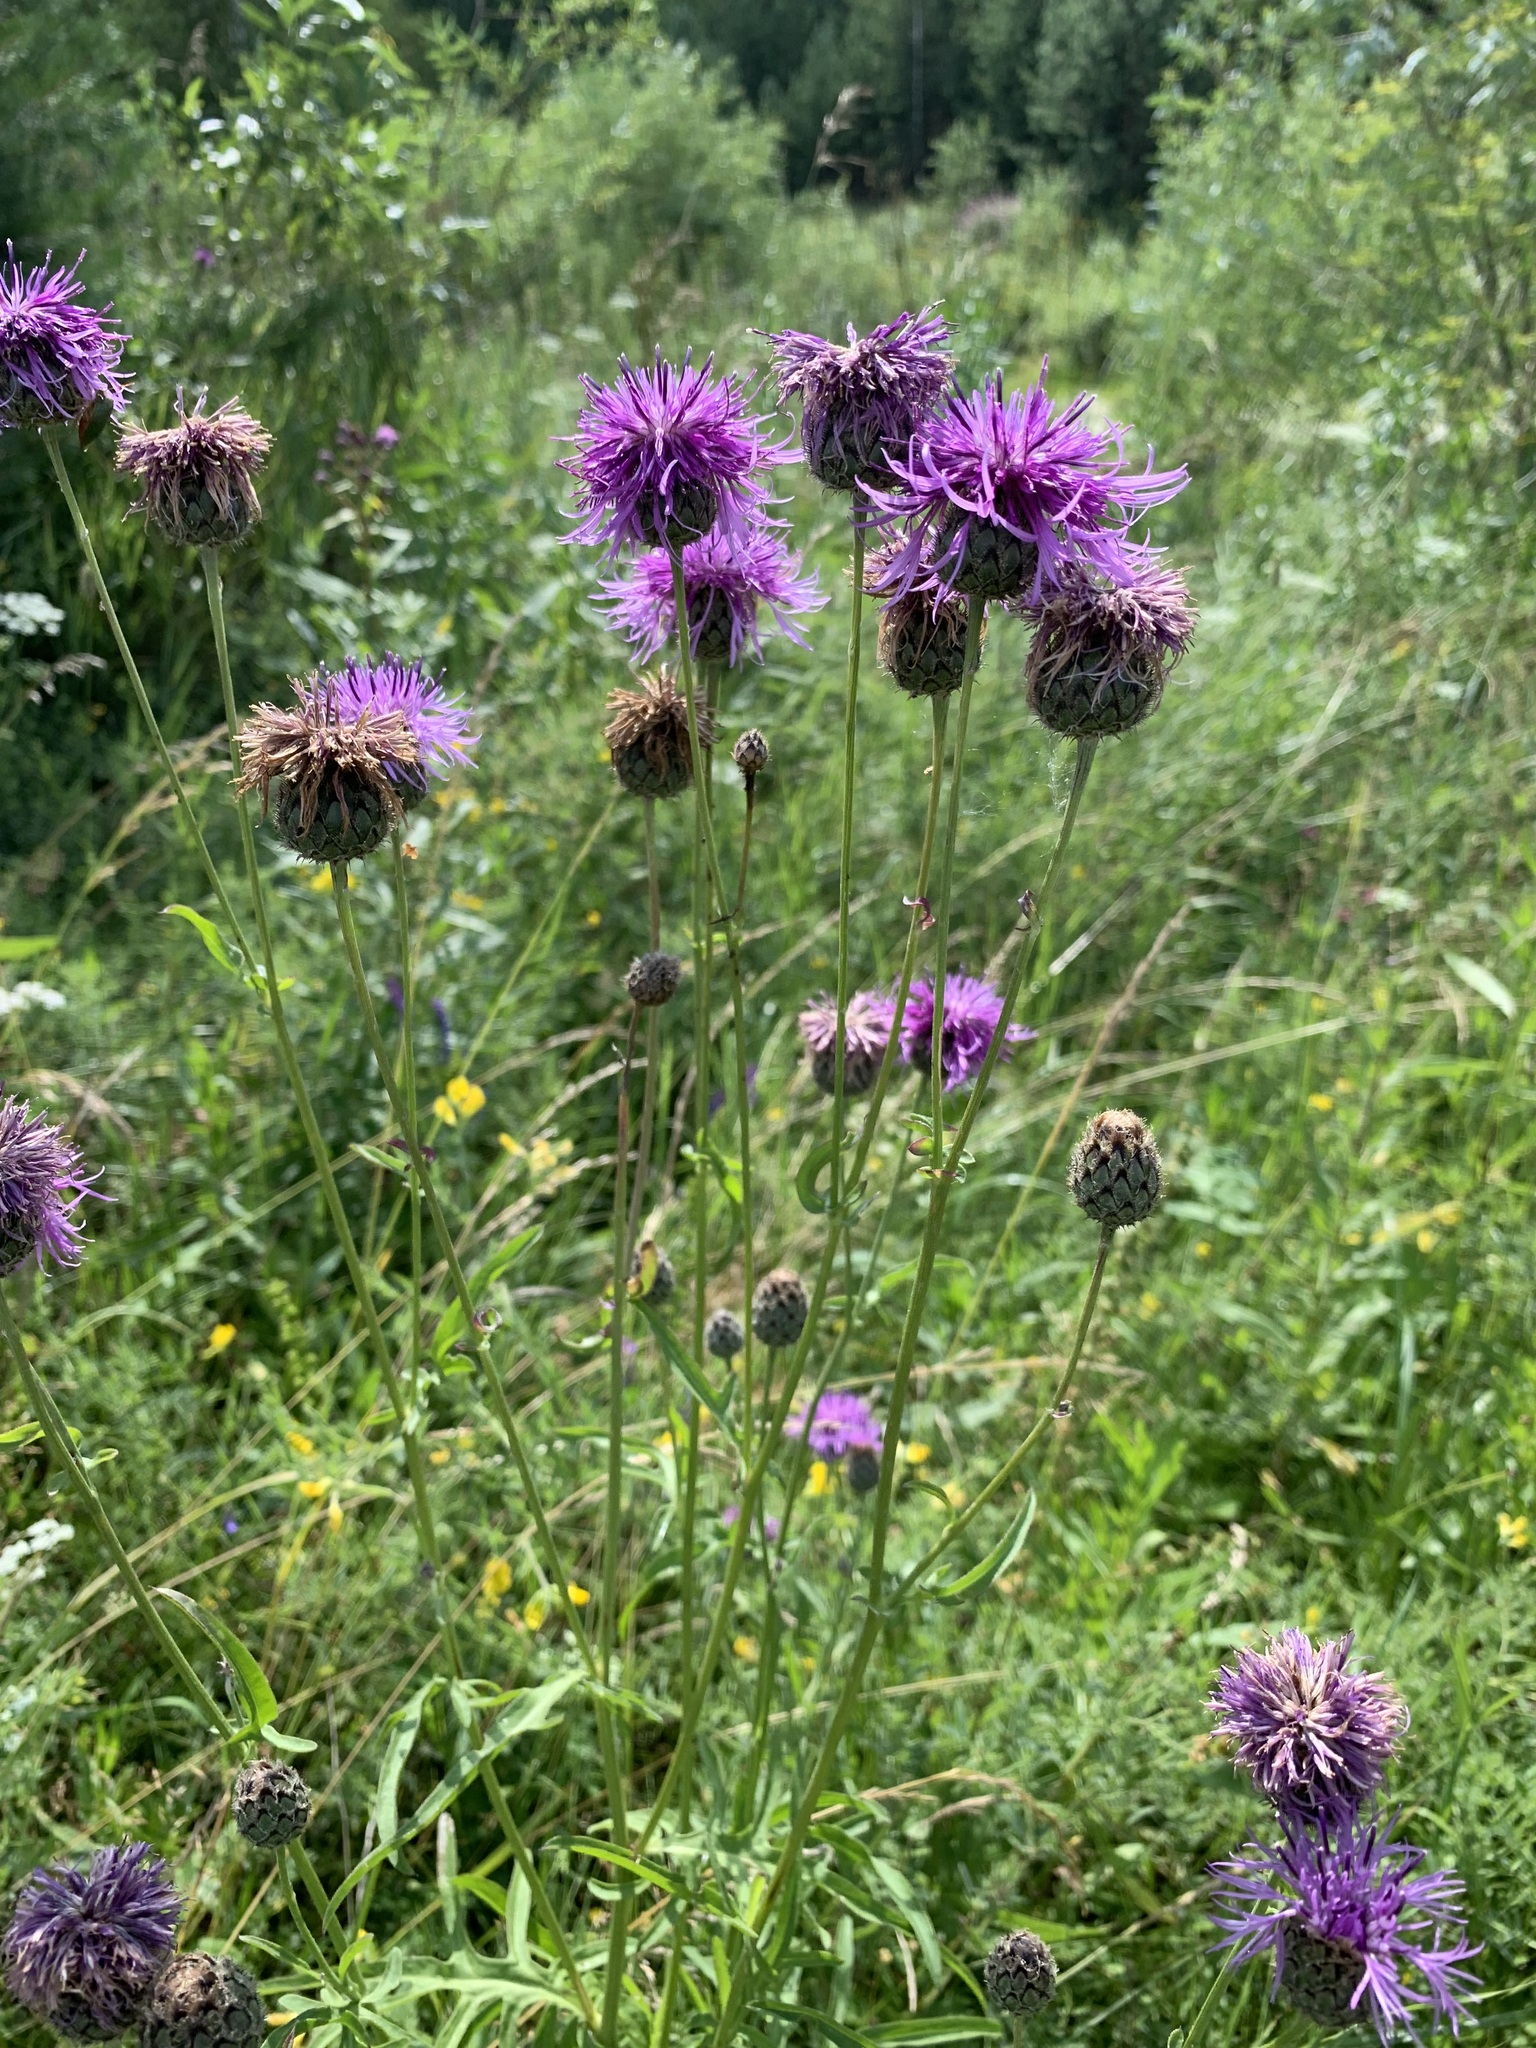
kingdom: Plantae
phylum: Tracheophyta
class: Magnoliopsida
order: Asterales
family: Asteraceae
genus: Centaurea
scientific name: Centaurea scabiosa
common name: Greater knapweed
